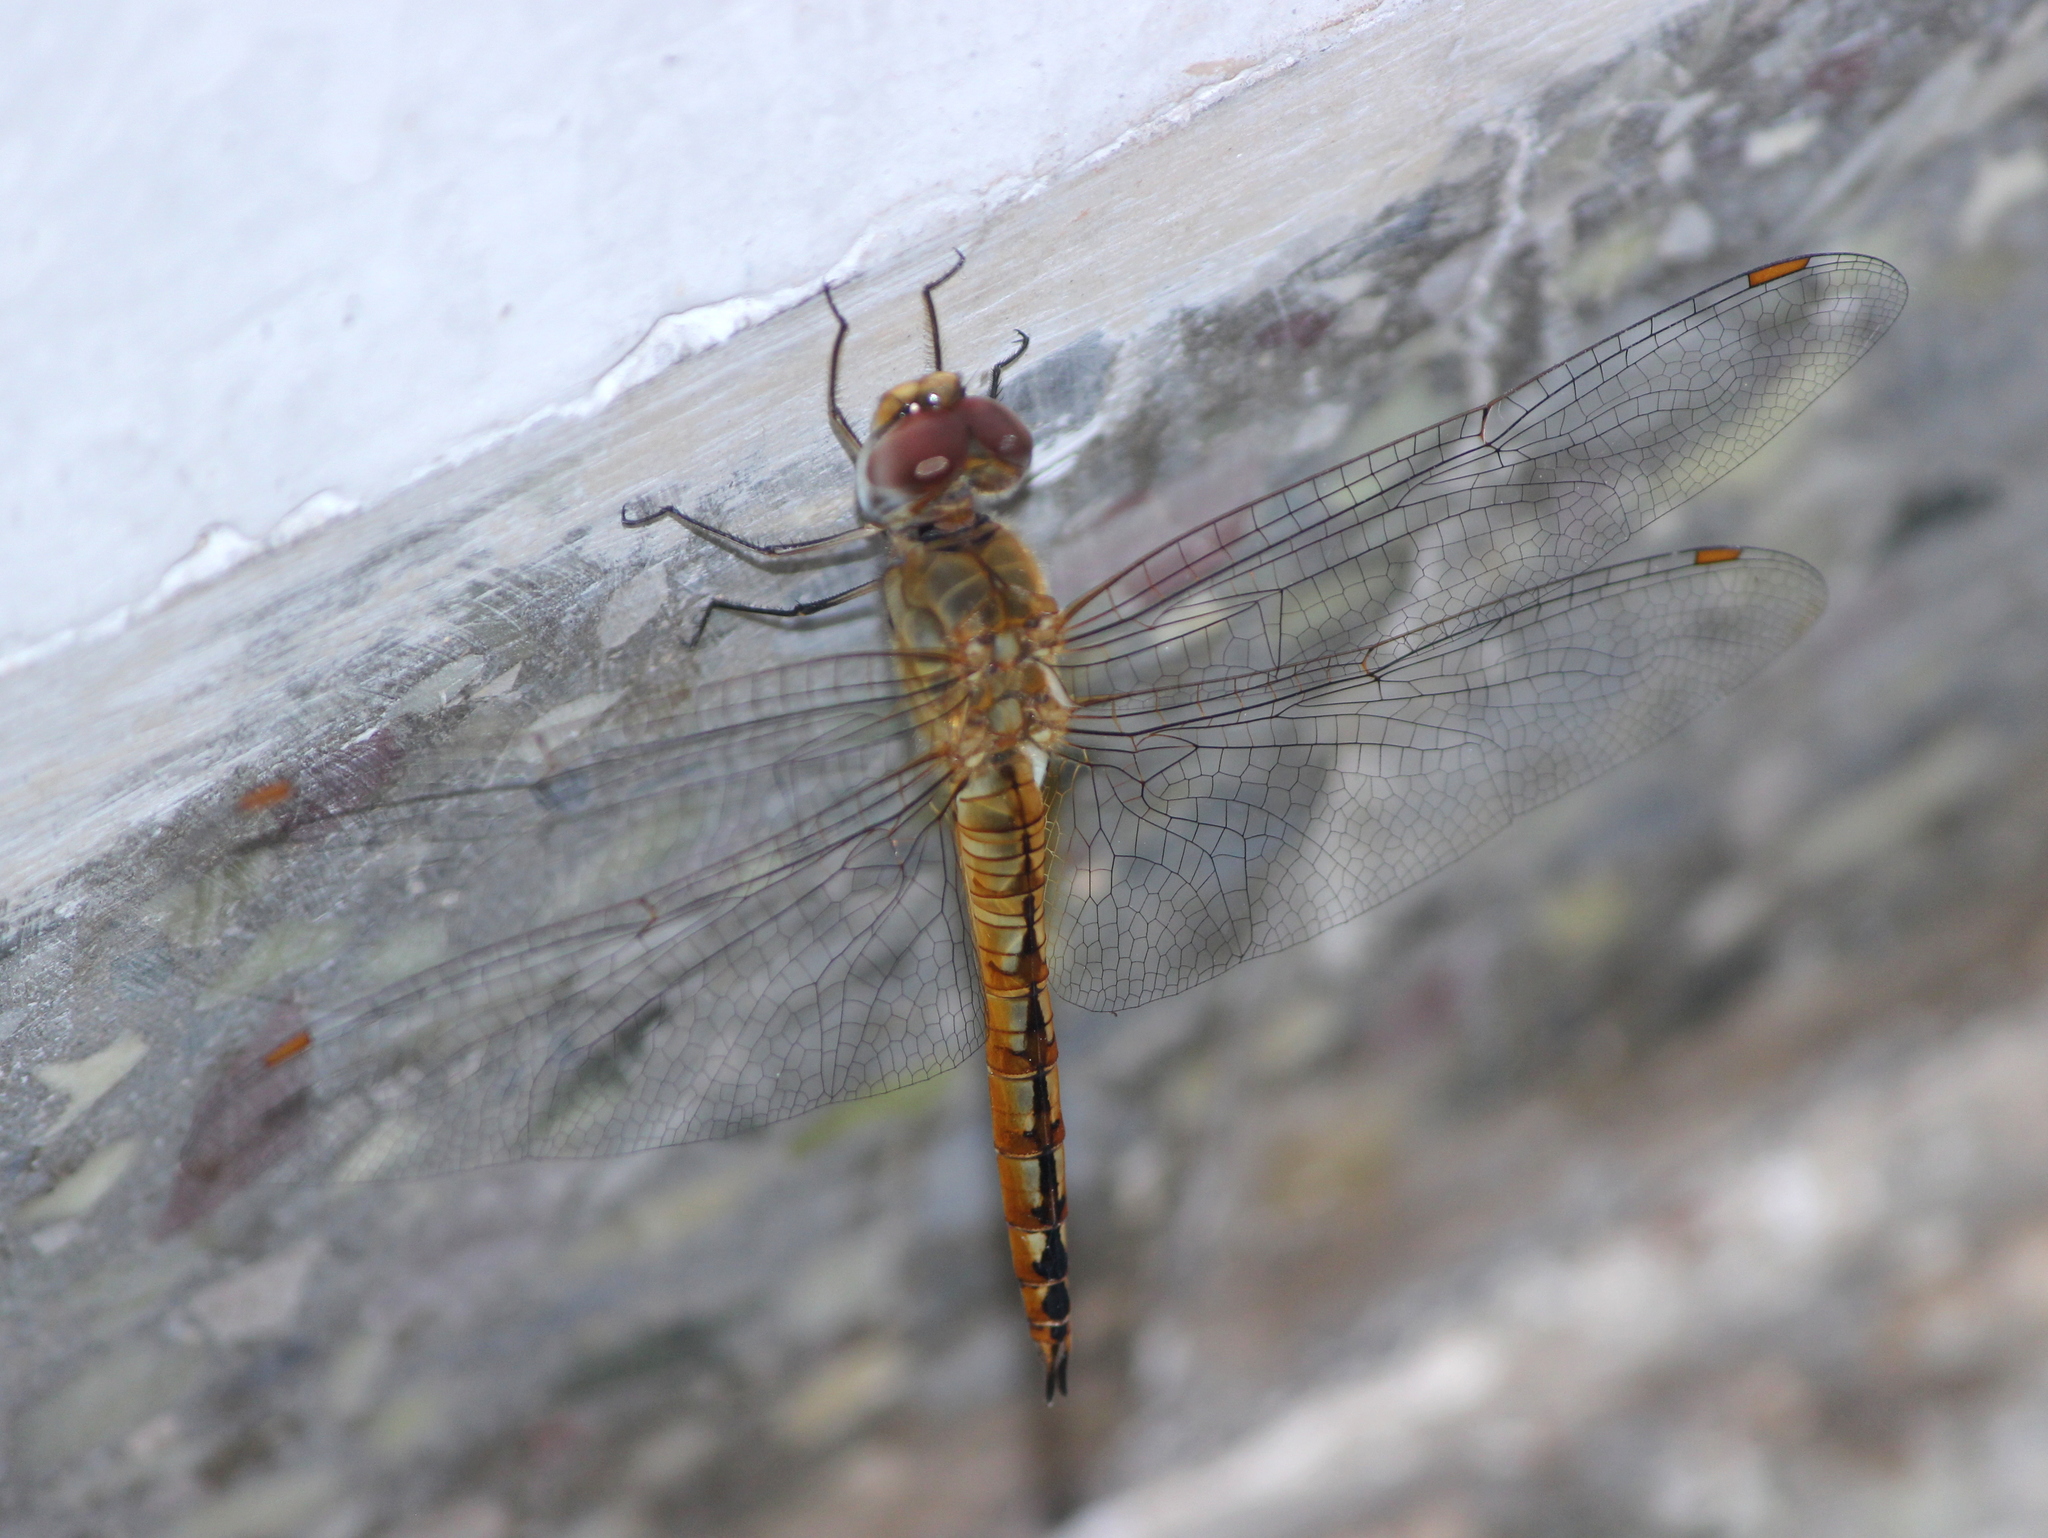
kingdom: Animalia
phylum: Arthropoda
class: Insecta
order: Odonata
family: Libellulidae
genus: Pantala
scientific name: Pantala flavescens
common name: Wandering glider
